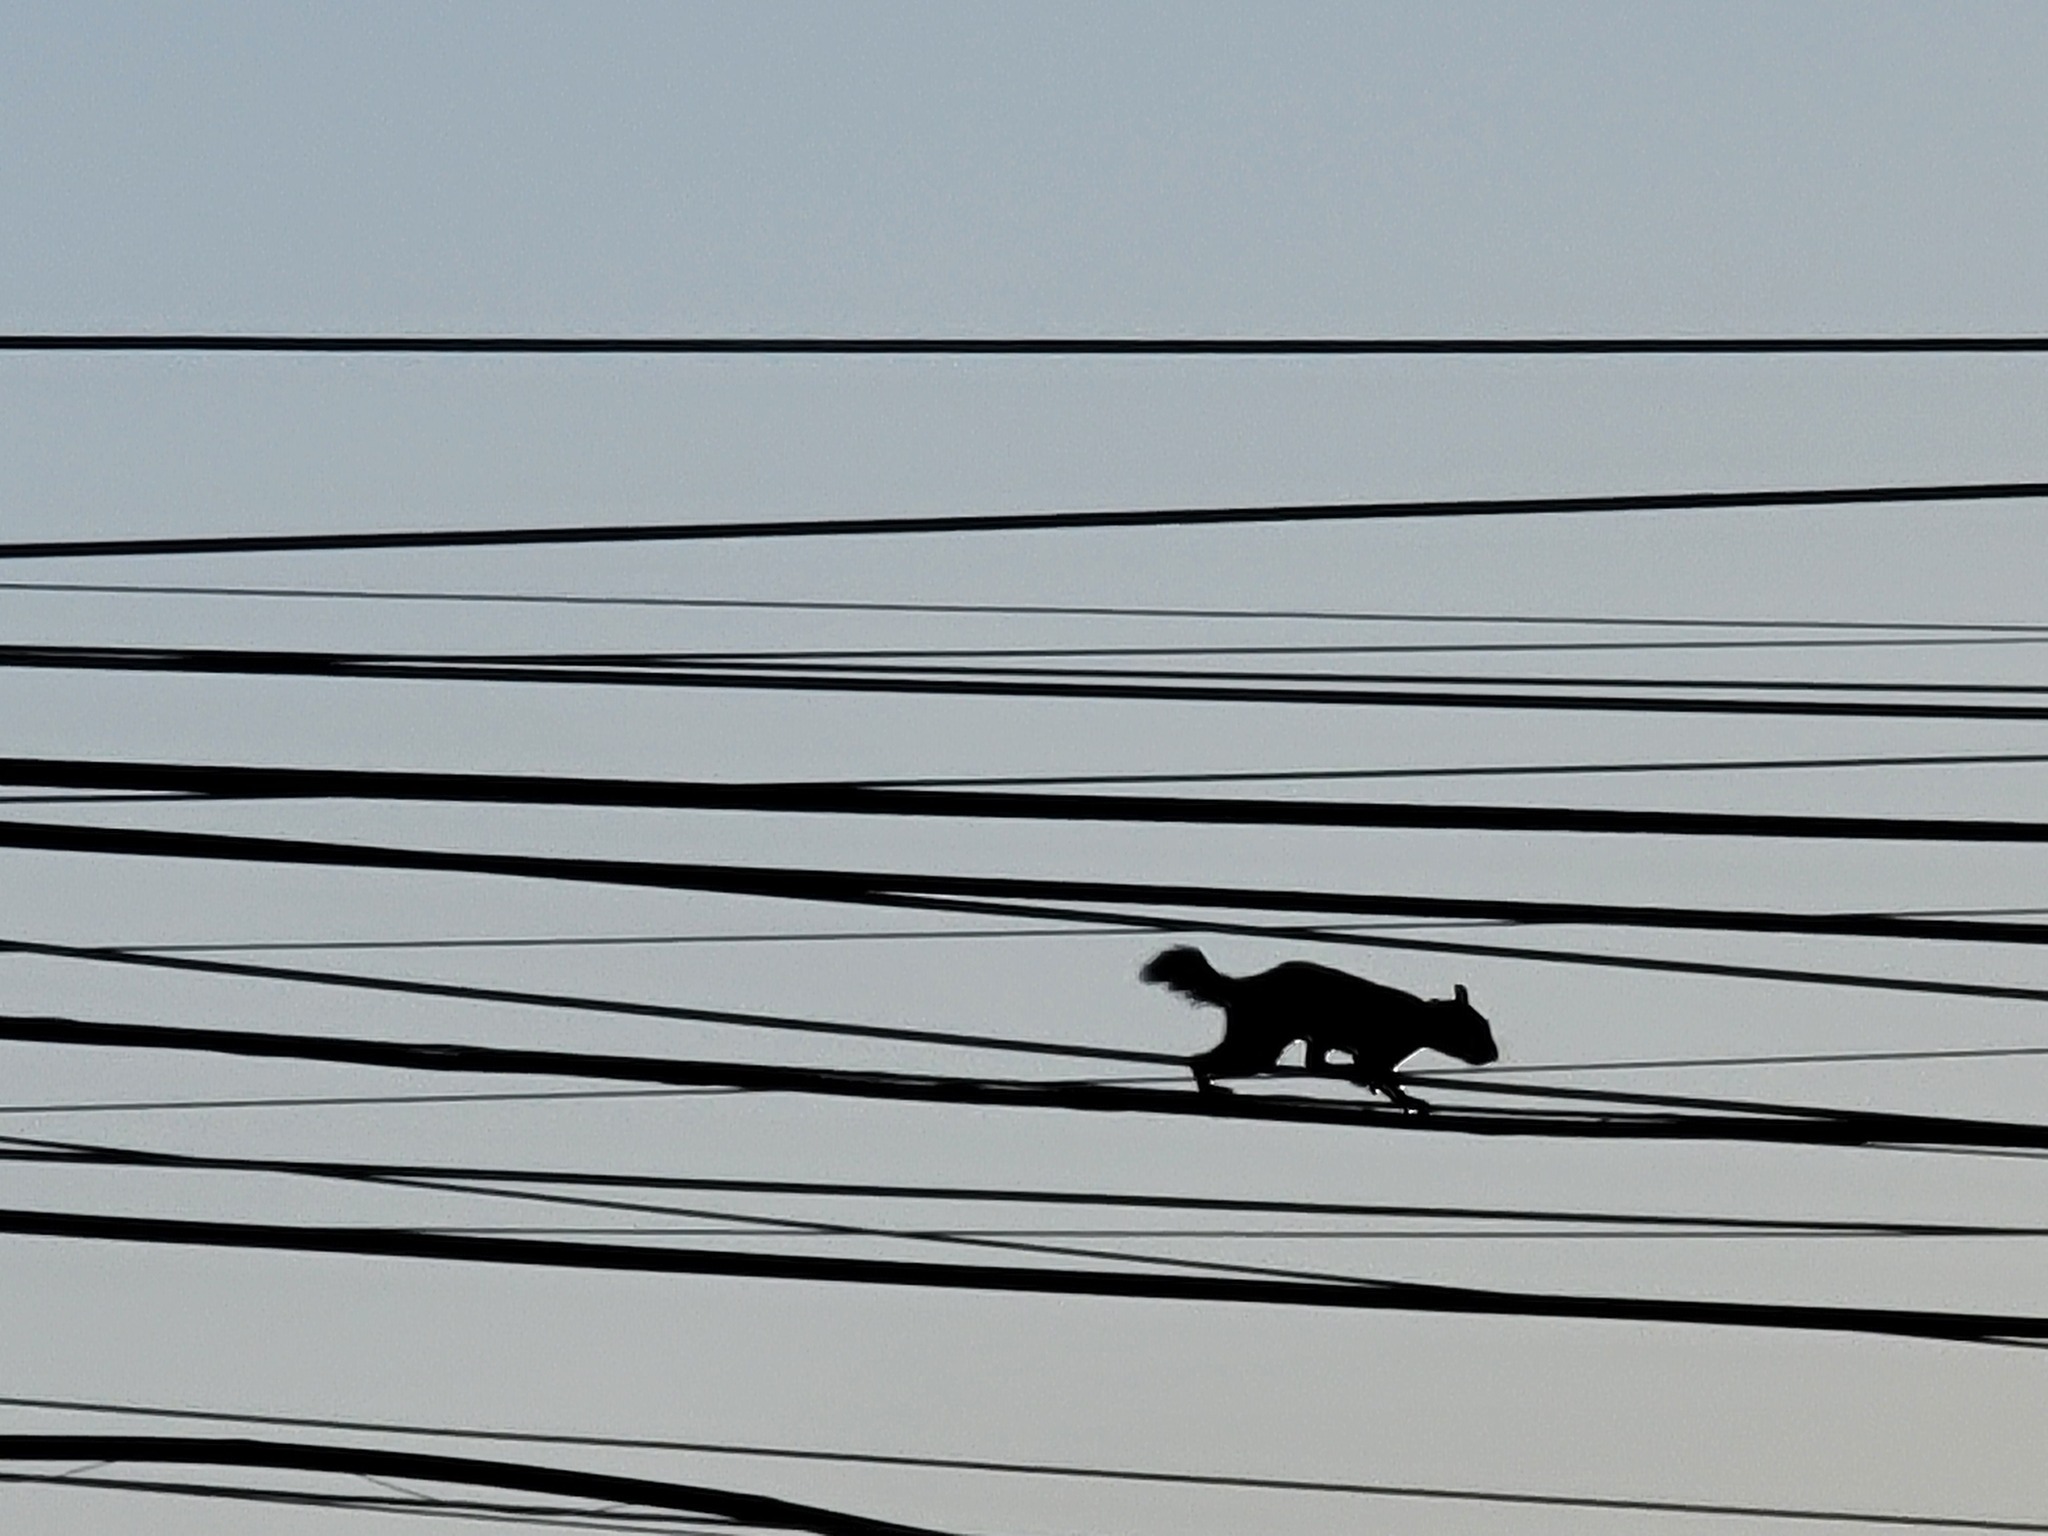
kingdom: Animalia
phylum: Chordata
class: Mammalia
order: Rodentia
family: Sciuridae
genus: Sciurus
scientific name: Sciurus aureogaster
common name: Red-bellied squirrel
